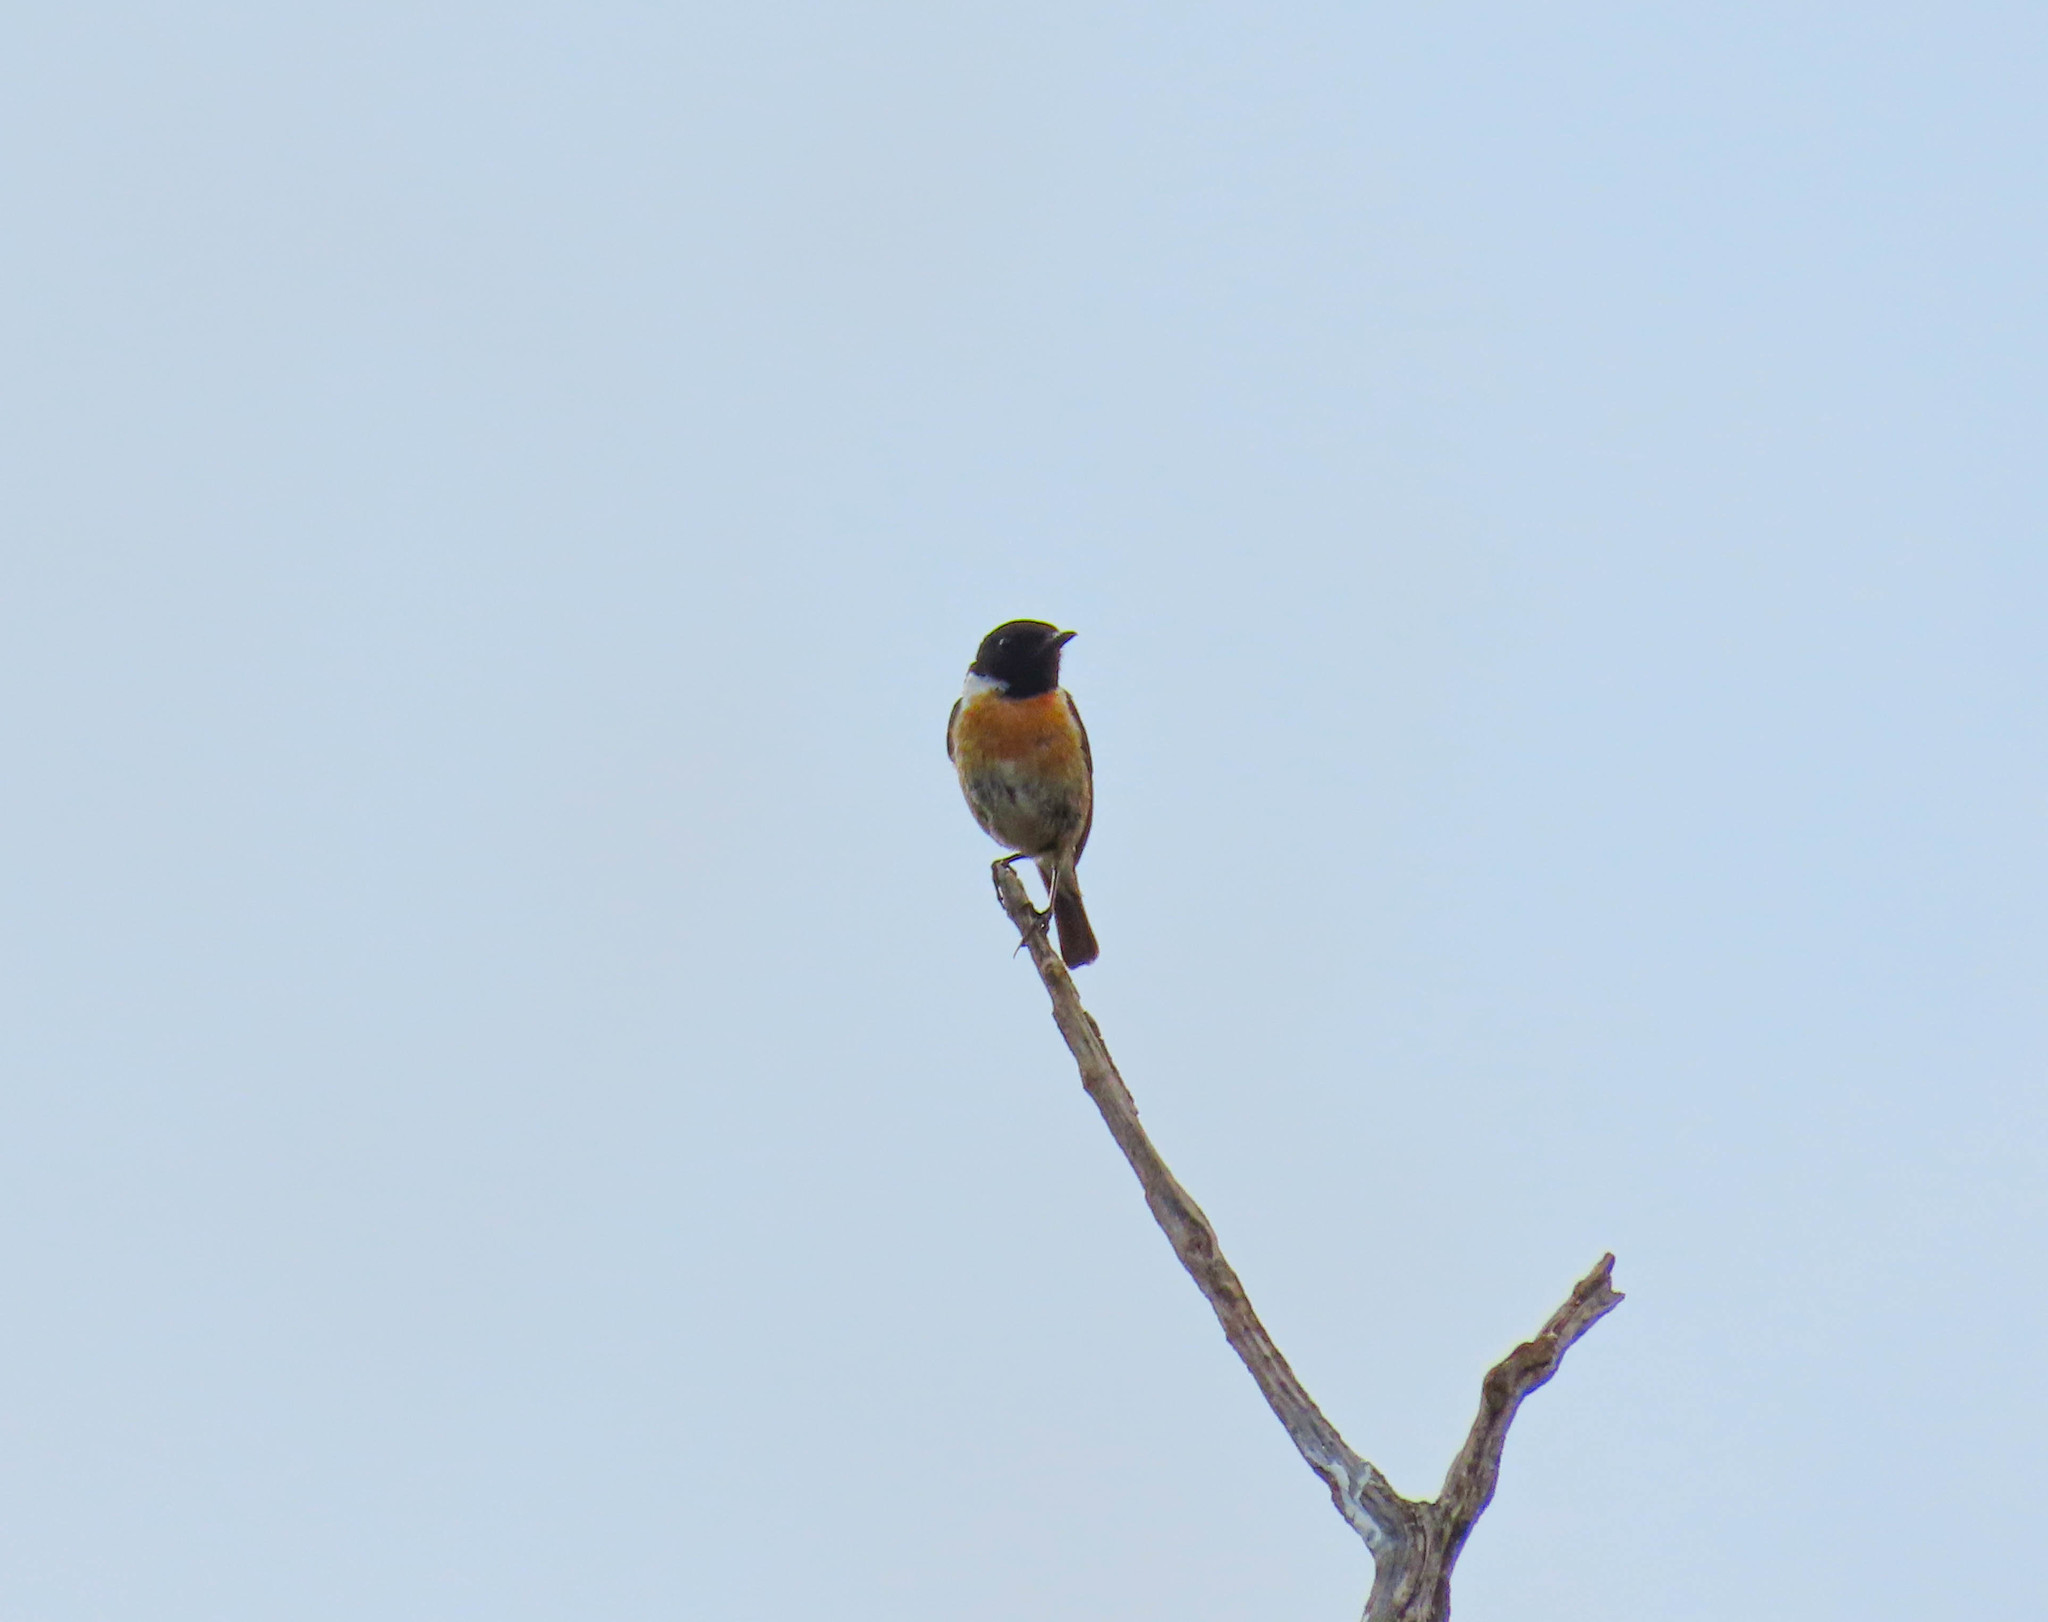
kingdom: Animalia
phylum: Chordata
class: Aves
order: Passeriformes
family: Muscicapidae
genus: Saxicola
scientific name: Saxicola rubicola
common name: European stonechat
